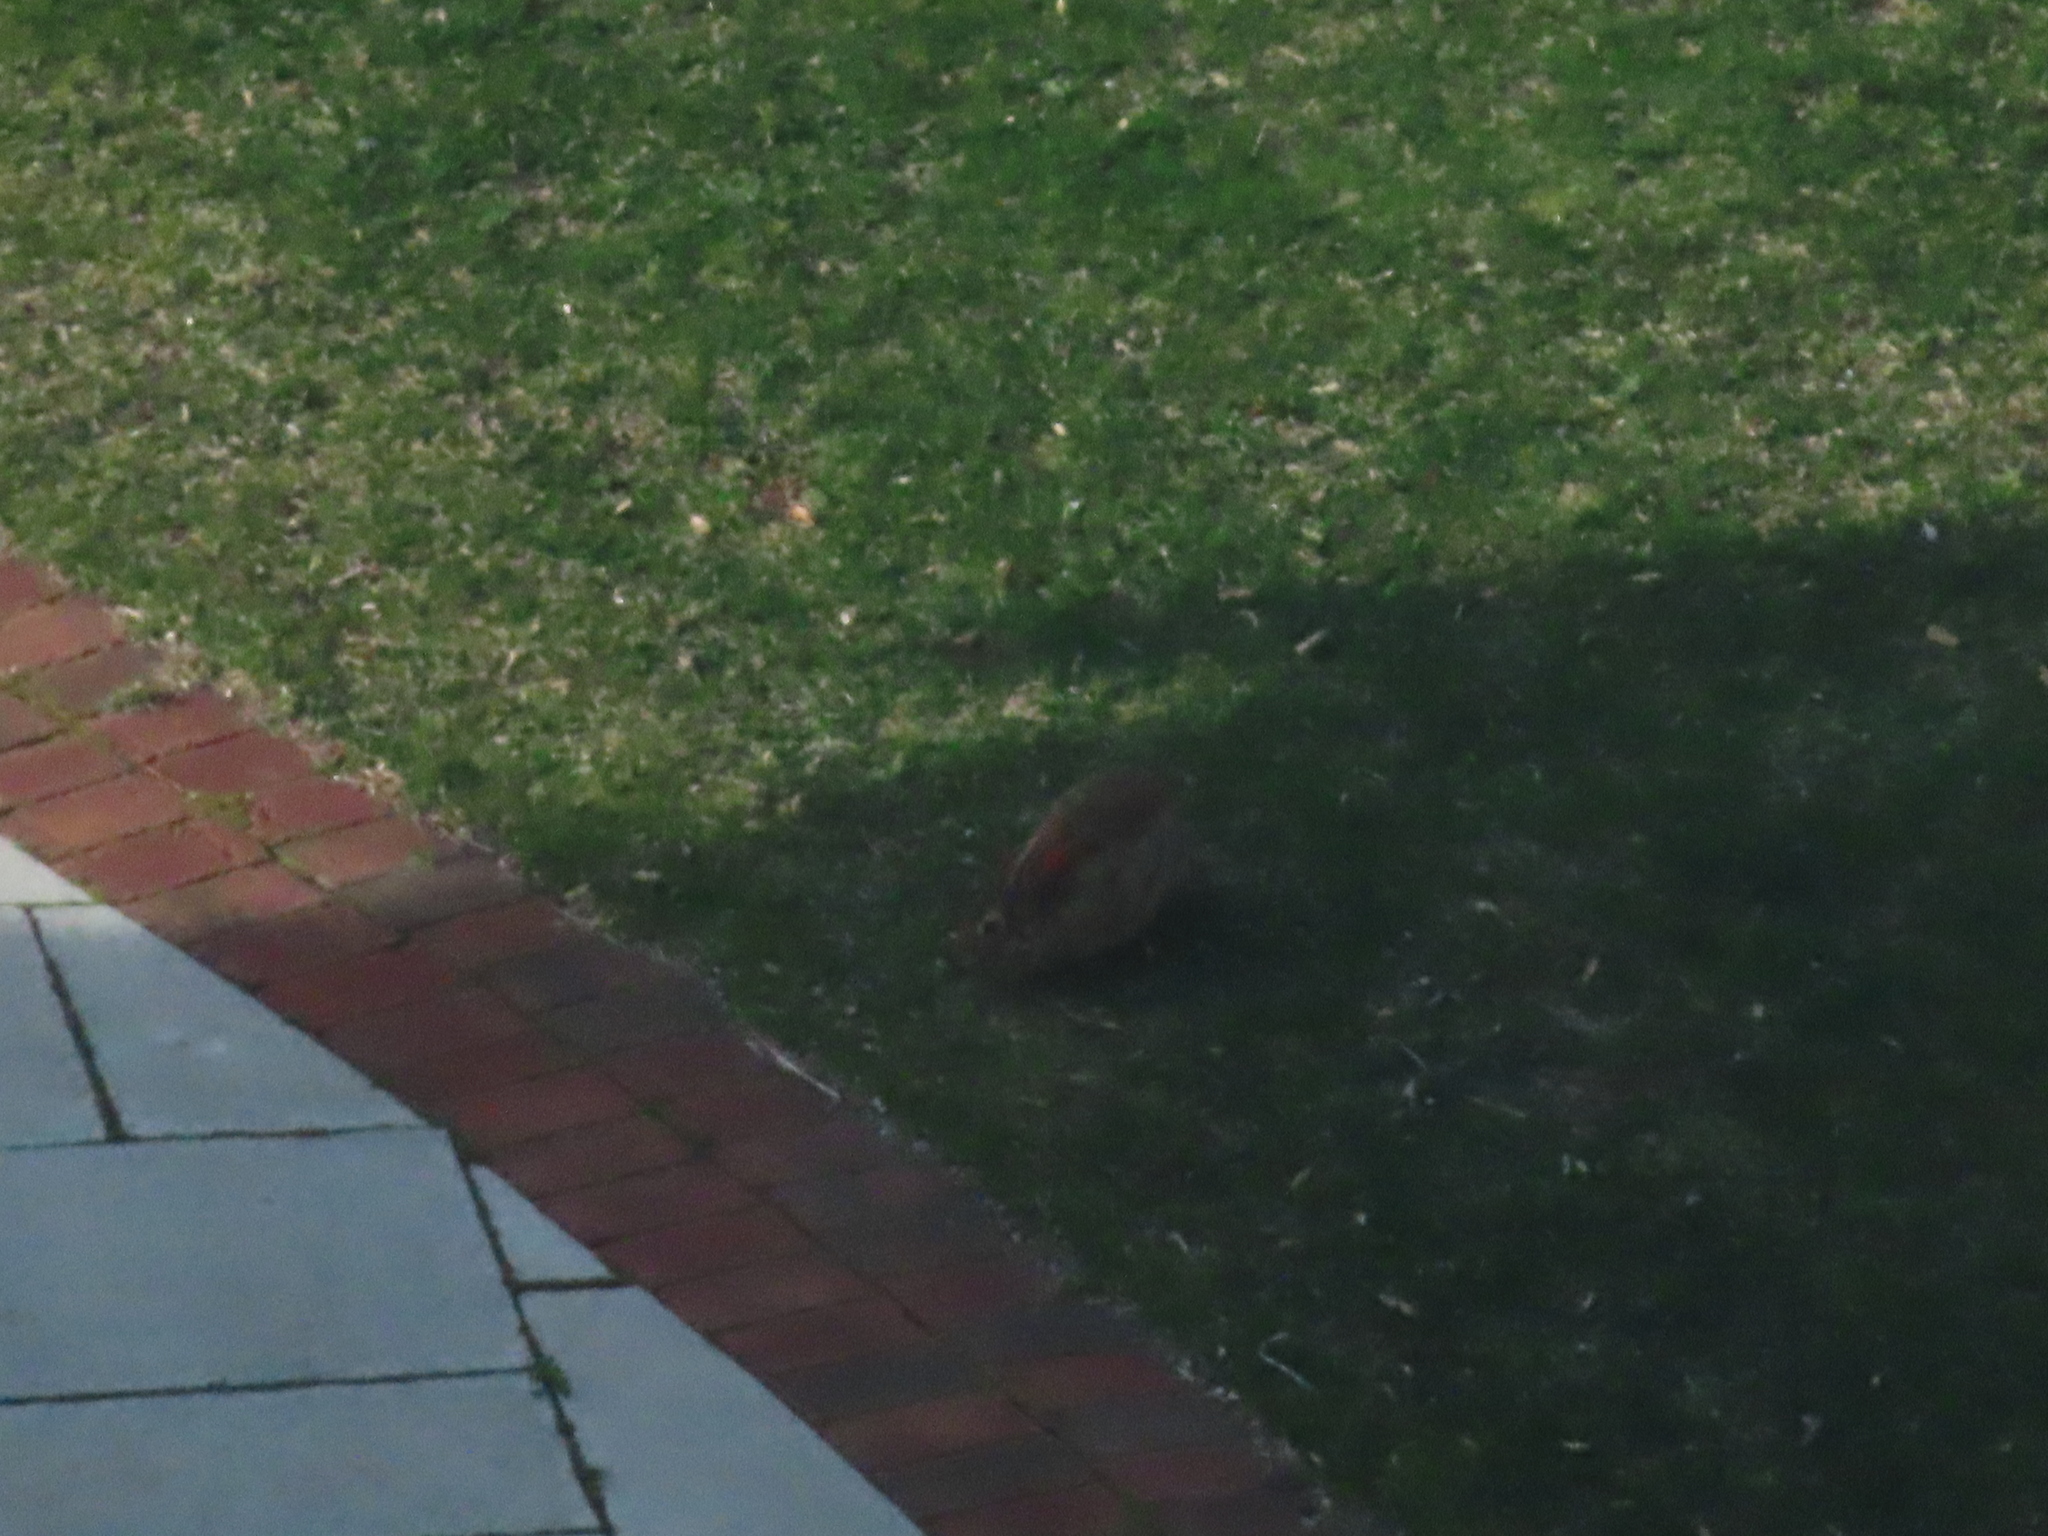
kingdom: Animalia
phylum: Chordata
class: Mammalia
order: Lagomorpha
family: Leporidae
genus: Sylvilagus
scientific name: Sylvilagus floridanus
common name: Eastern cottontail
